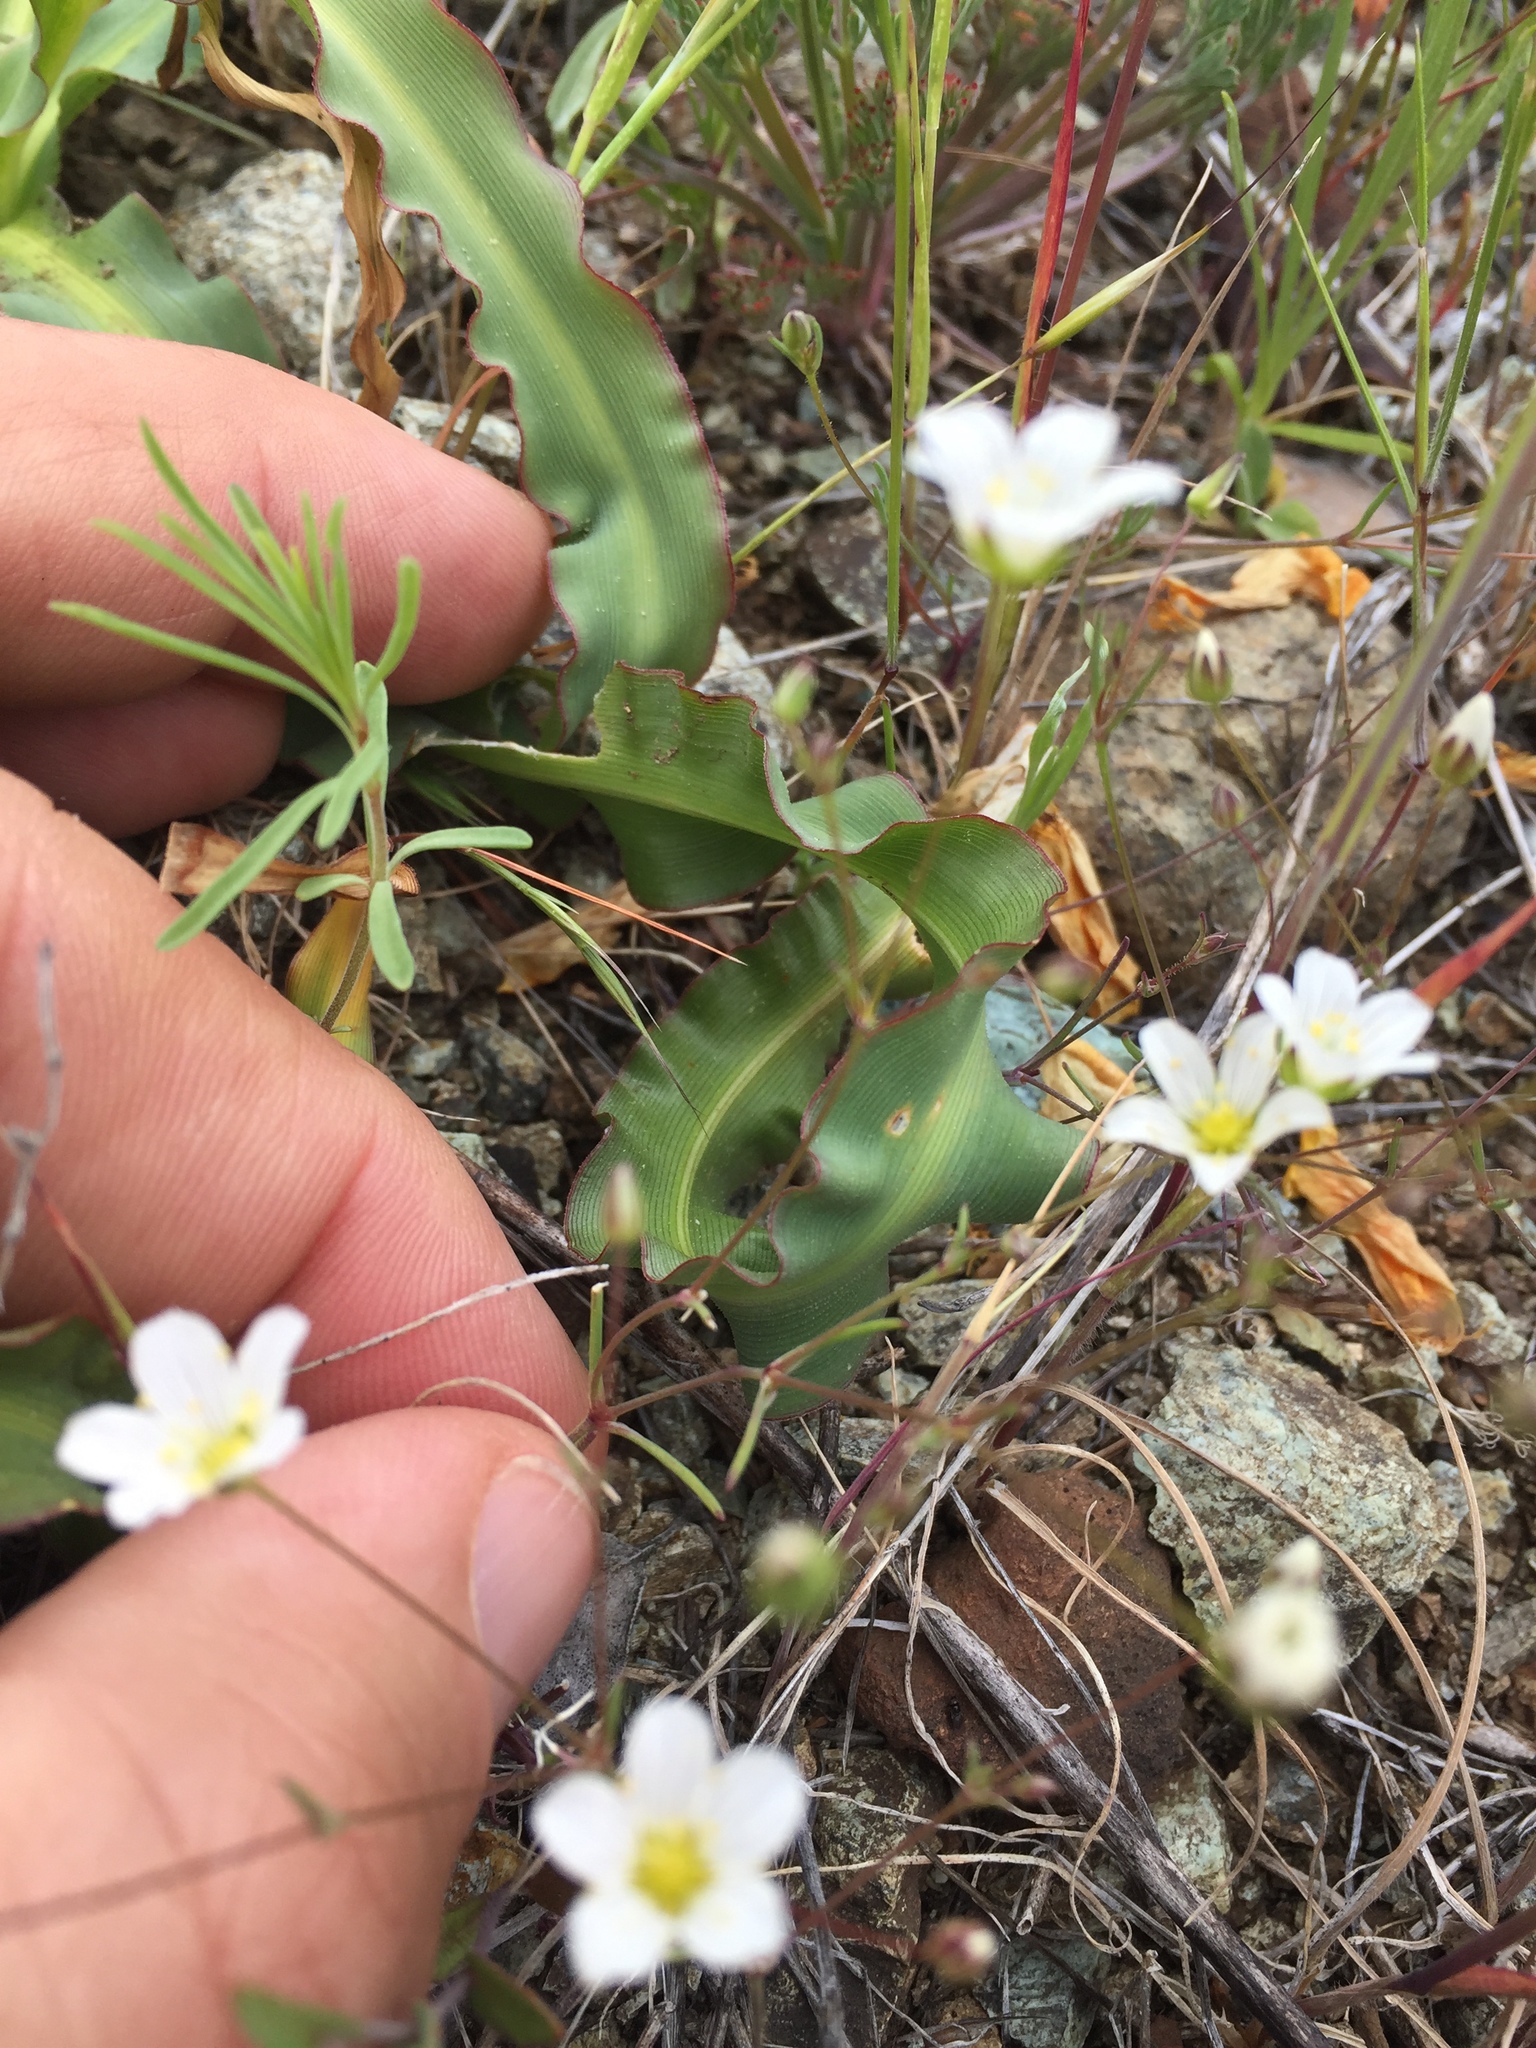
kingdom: Plantae
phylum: Tracheophyta
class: Magnoliopsida
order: Caryophyllales
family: Caryophyllaceae
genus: Sabulina
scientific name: Sabulina douglasii
